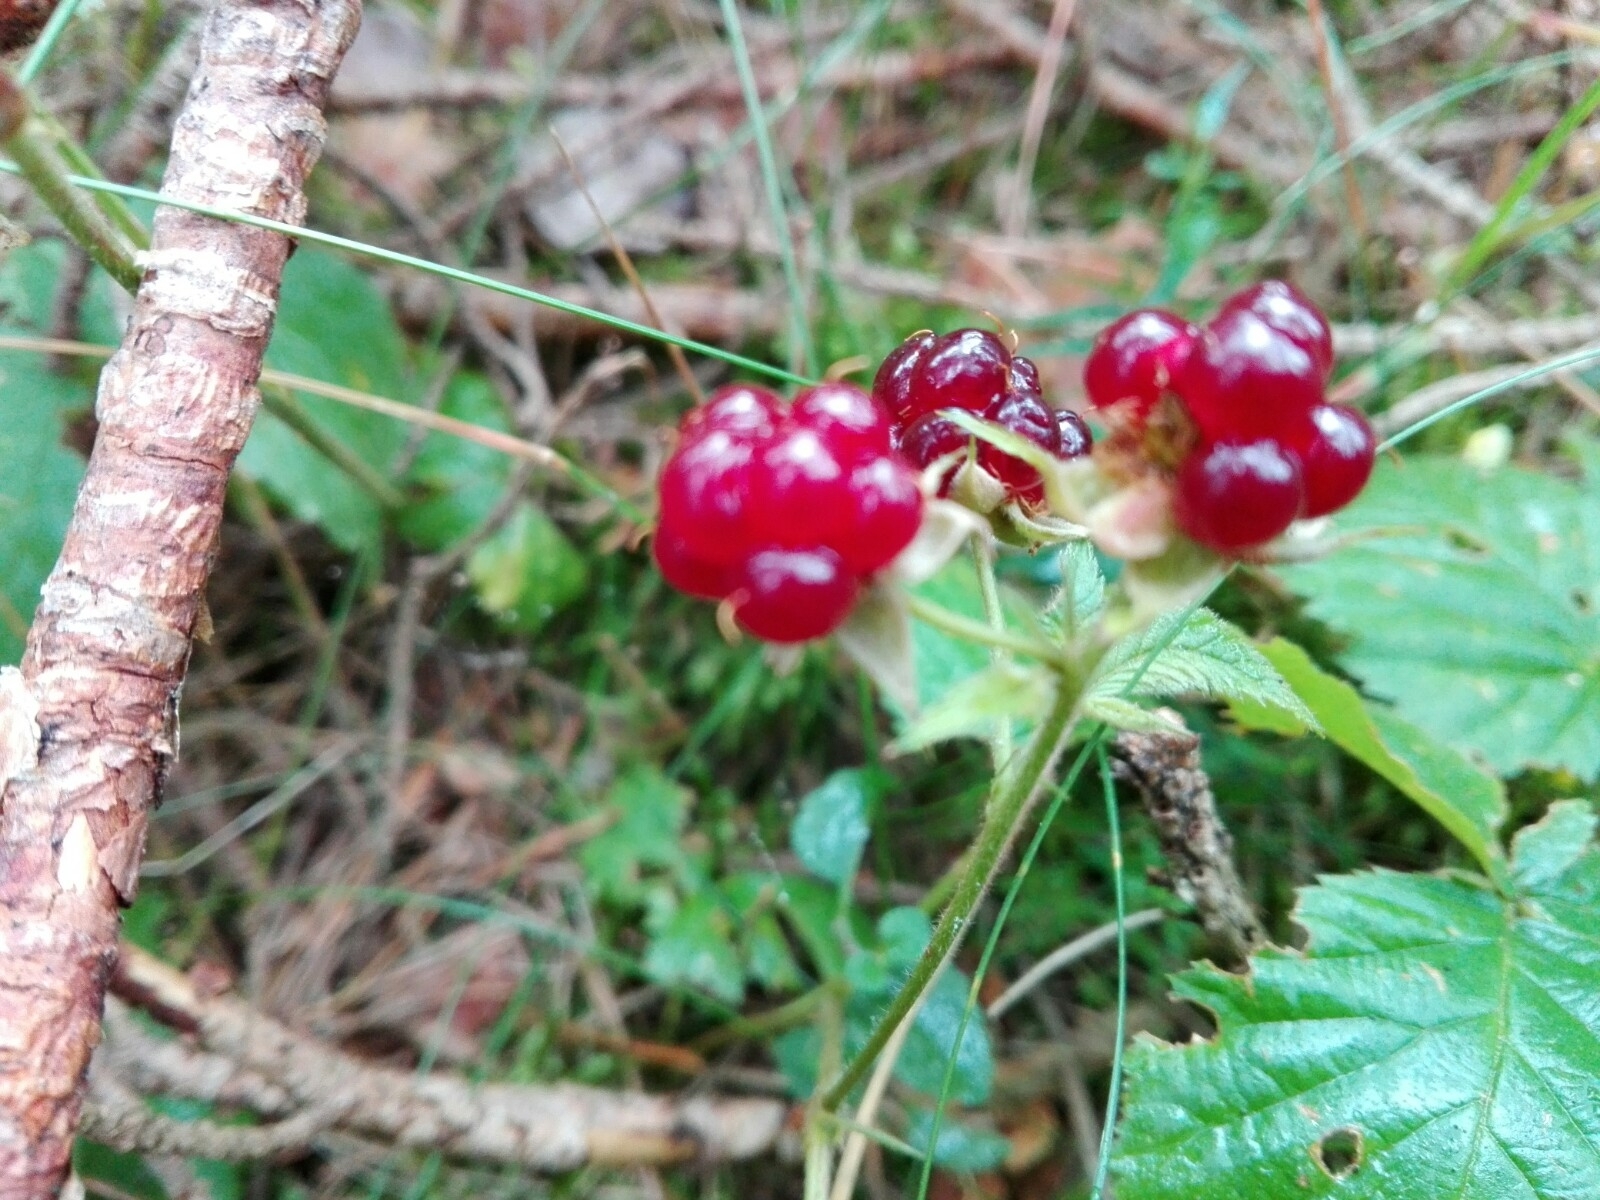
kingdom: Plantae
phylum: Tracheophyta
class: Magnoliopsida
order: Rosales
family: Rosaceae
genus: Rubus
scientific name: Rubus saxatilis
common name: Stone bramble
